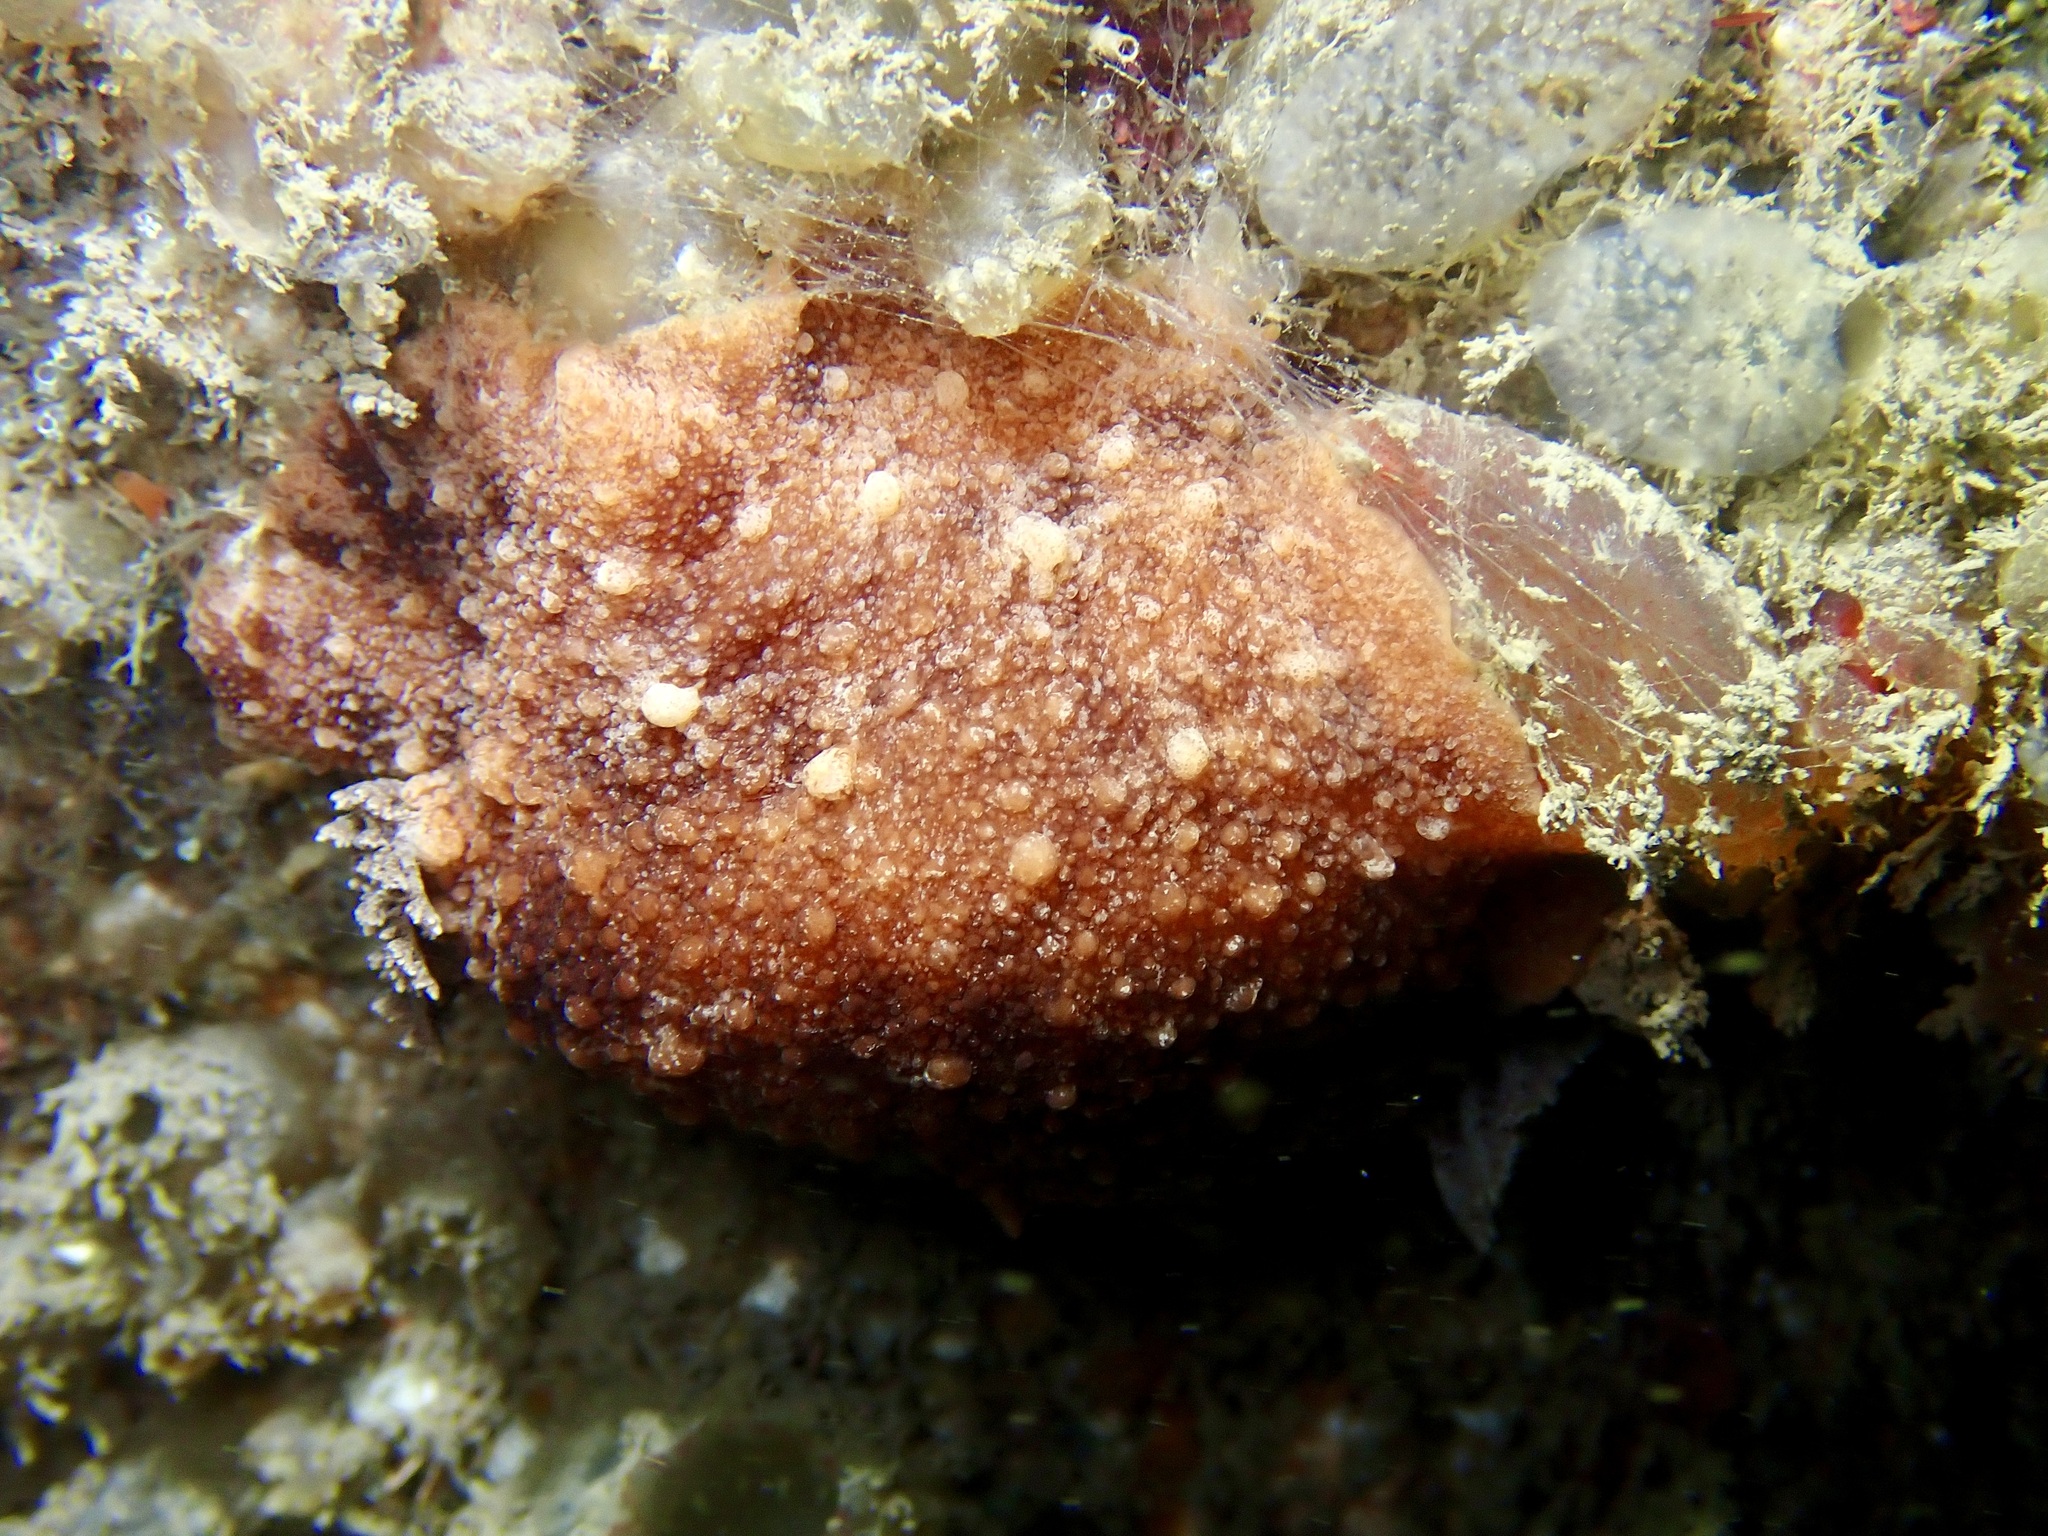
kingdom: Animalia
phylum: Mollusca
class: Gastropoda
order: Nudibranchia
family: Discodorididae
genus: Geitodoris
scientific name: Geitodoris planata
